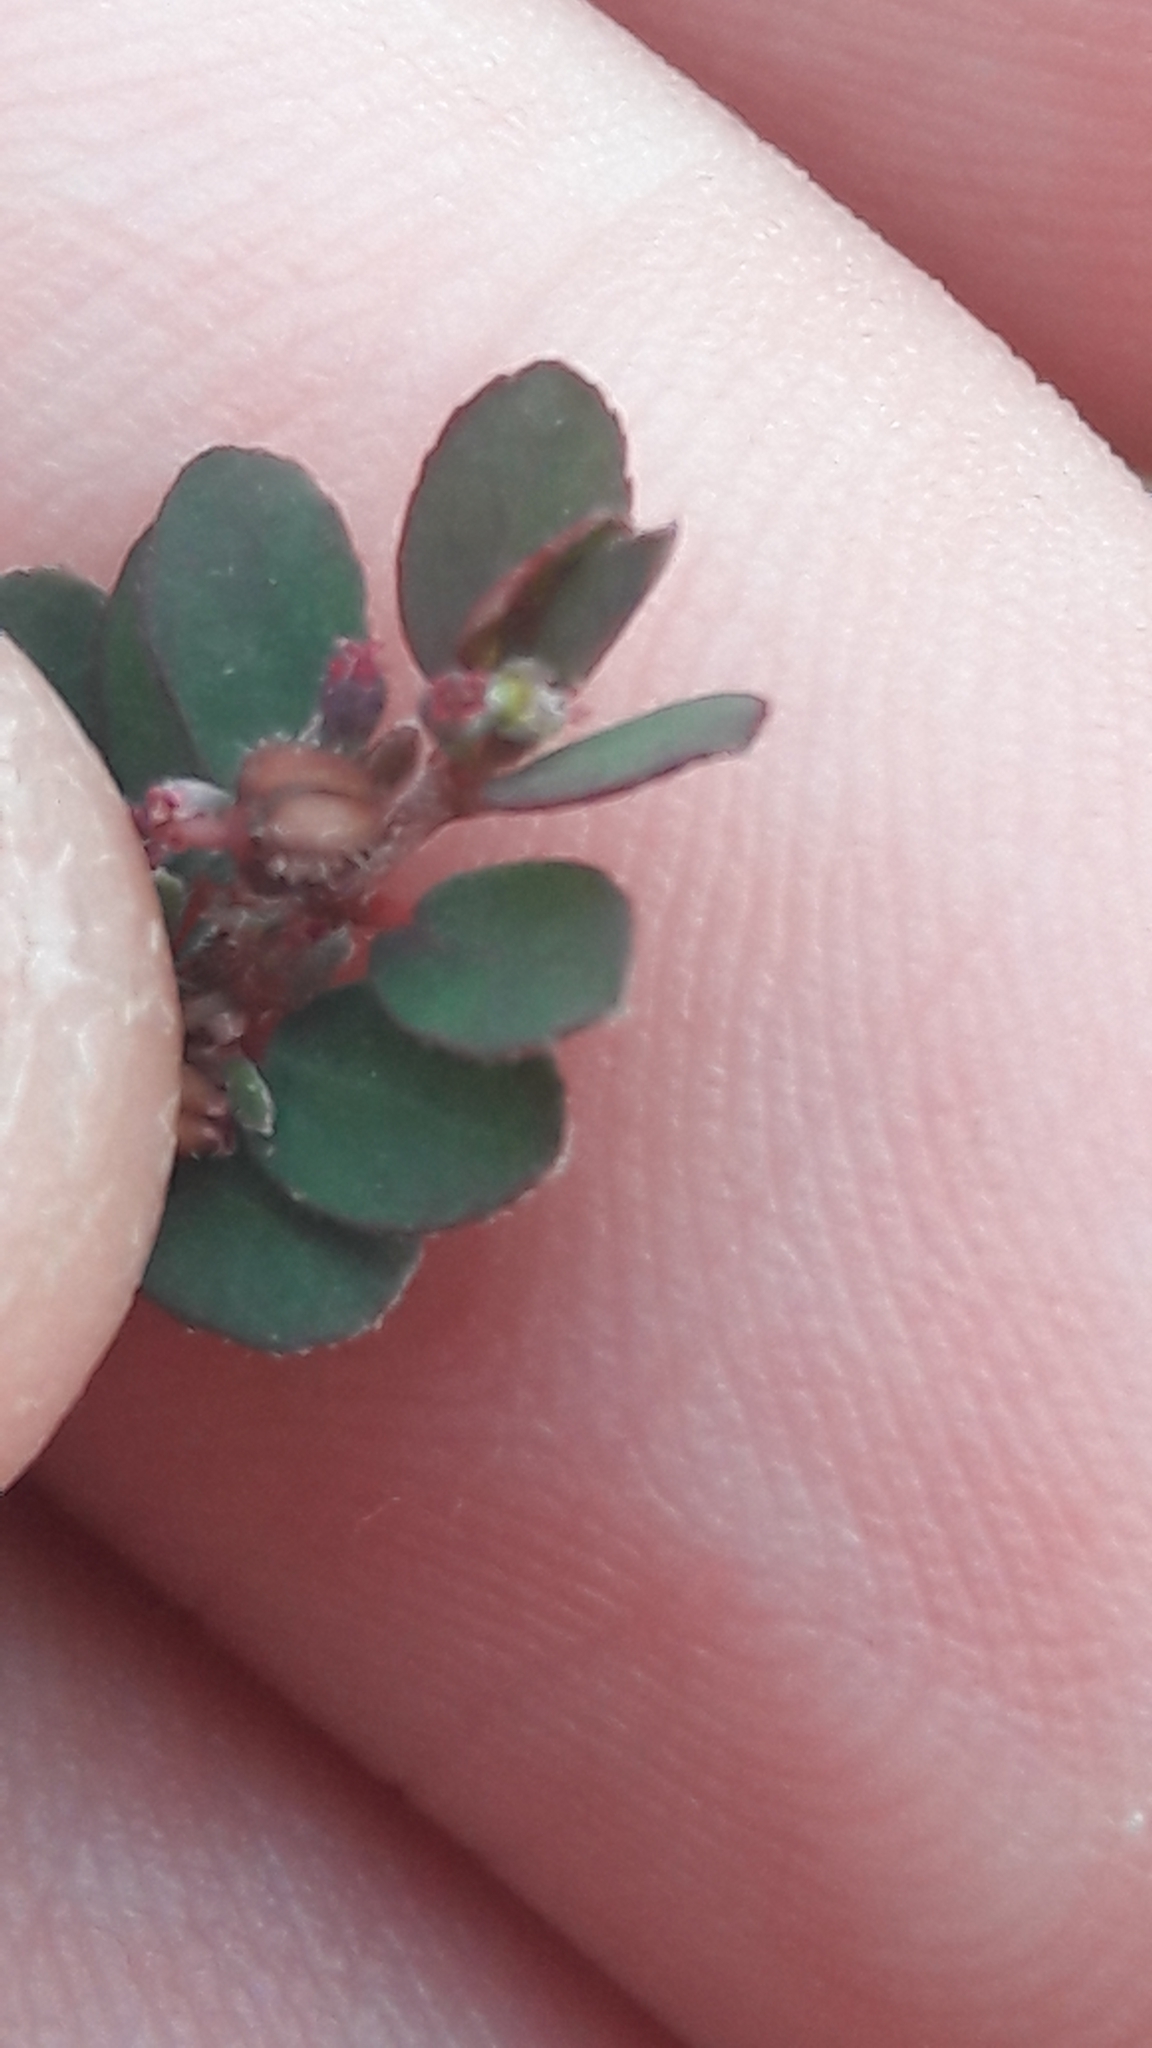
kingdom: Plantae
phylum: Tracheophyta
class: Magnoliopsida
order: Malpighiales
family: Euphorbiaceae
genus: Euphorbia
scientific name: Euphorbia prostrata
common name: Prostrate sandmat
